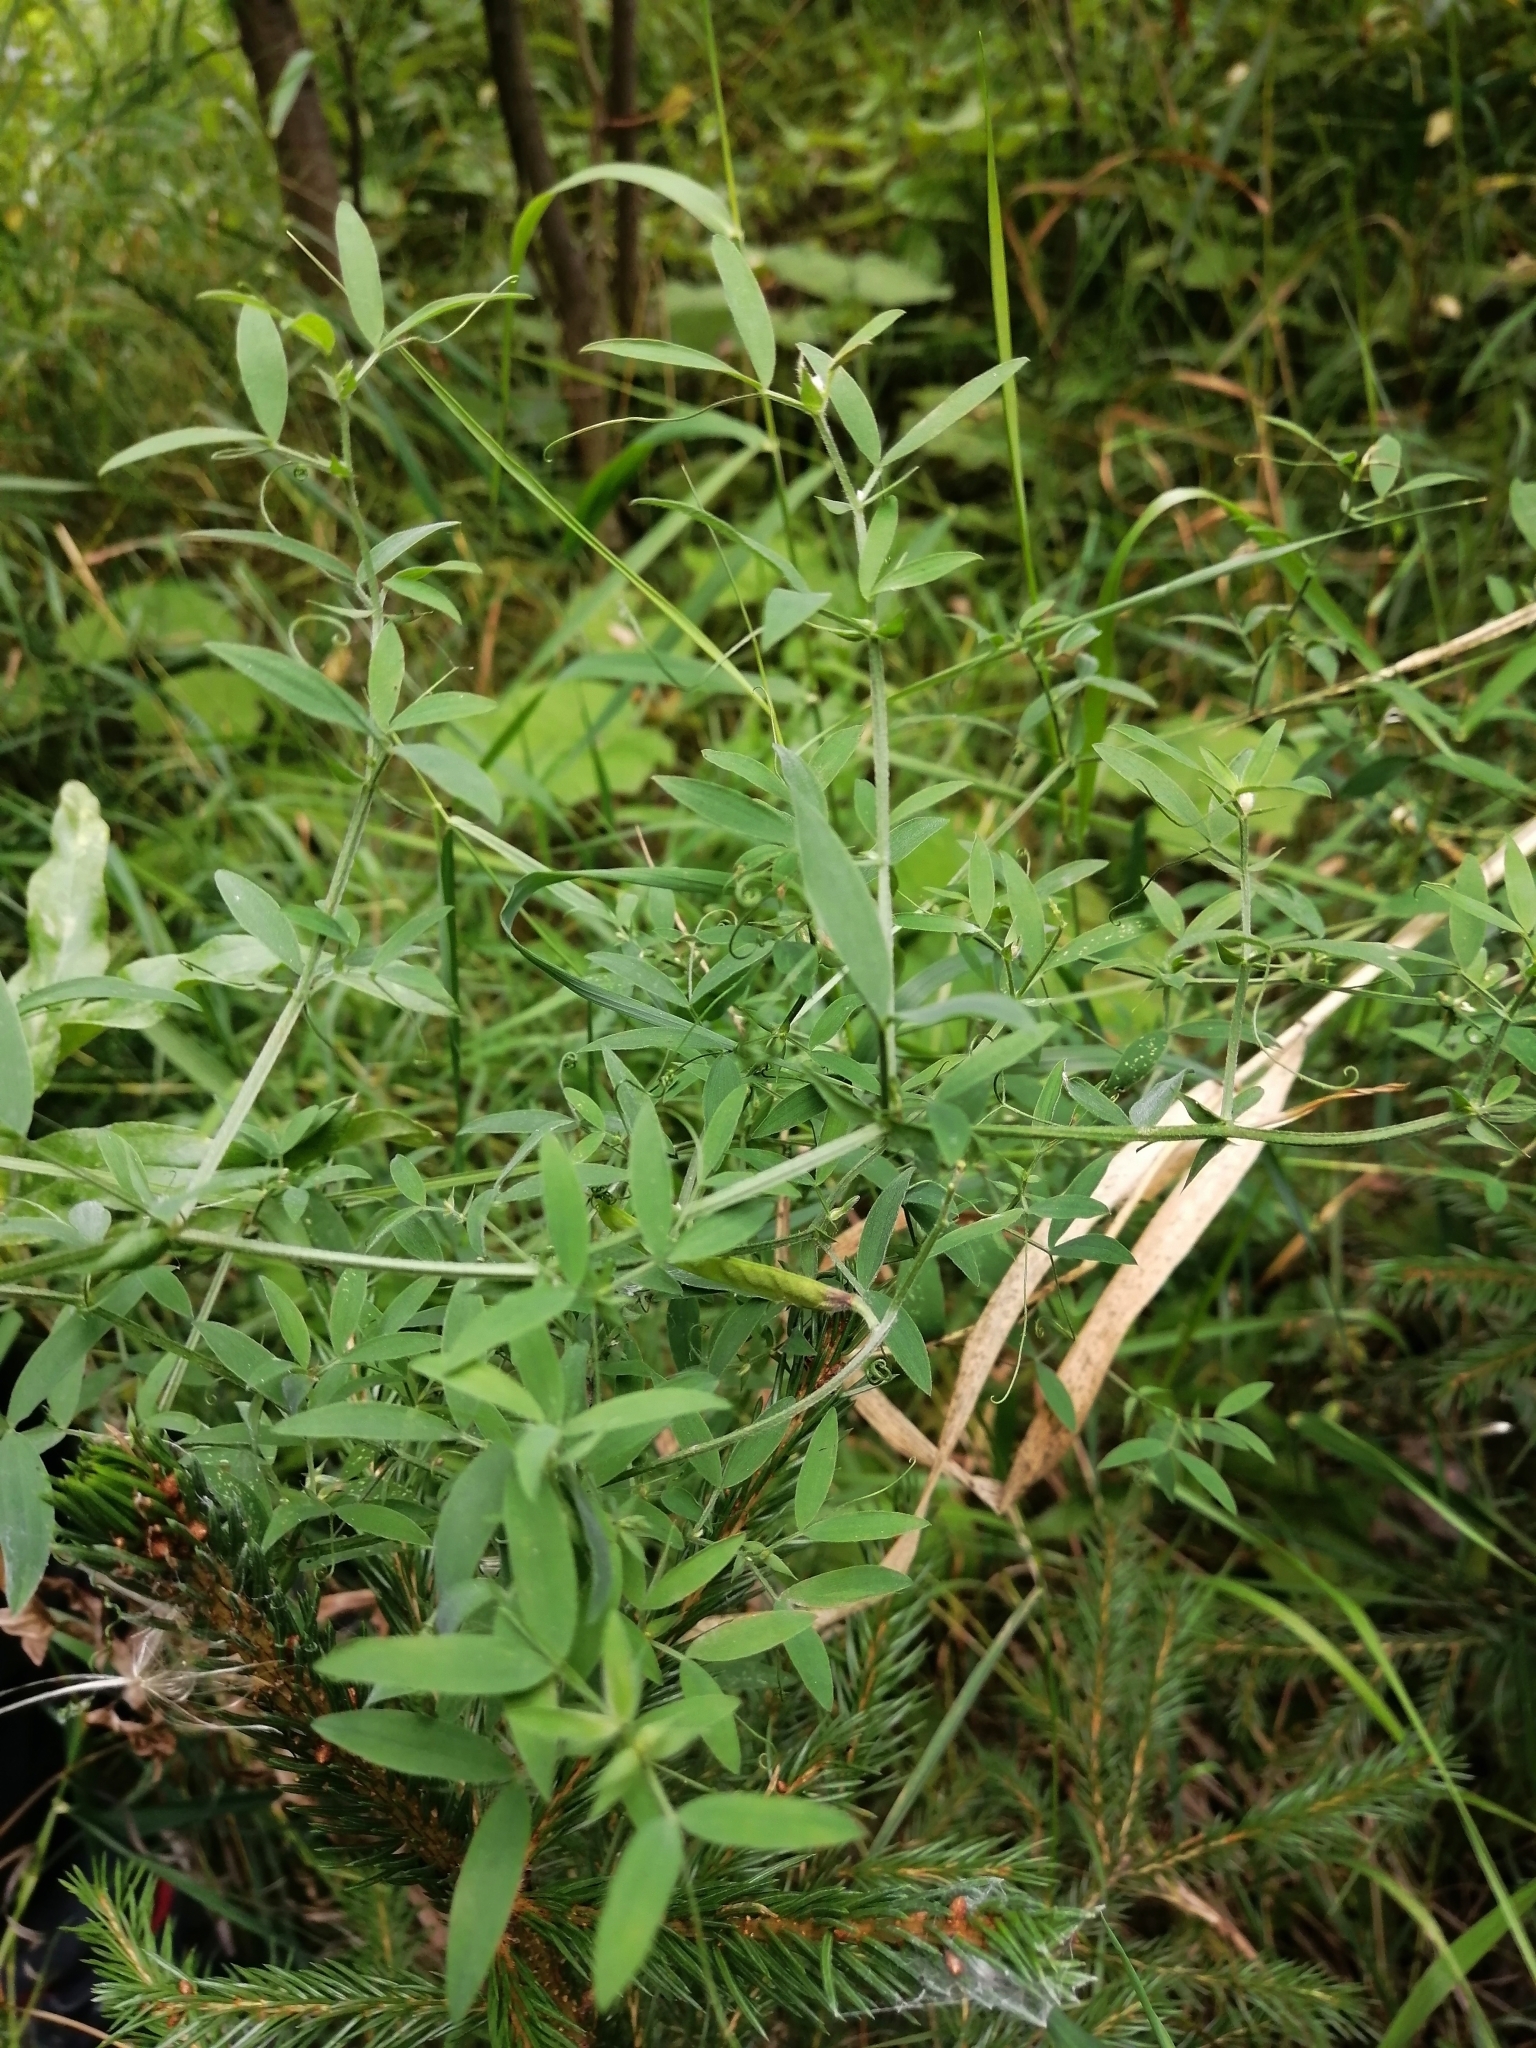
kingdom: Plantae
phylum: Tracheophyta
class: Magnoliopsida
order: Fabales
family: Fabaceae
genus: Lathyrus
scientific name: Lathyrus pratensis
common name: Meadow vetchling
